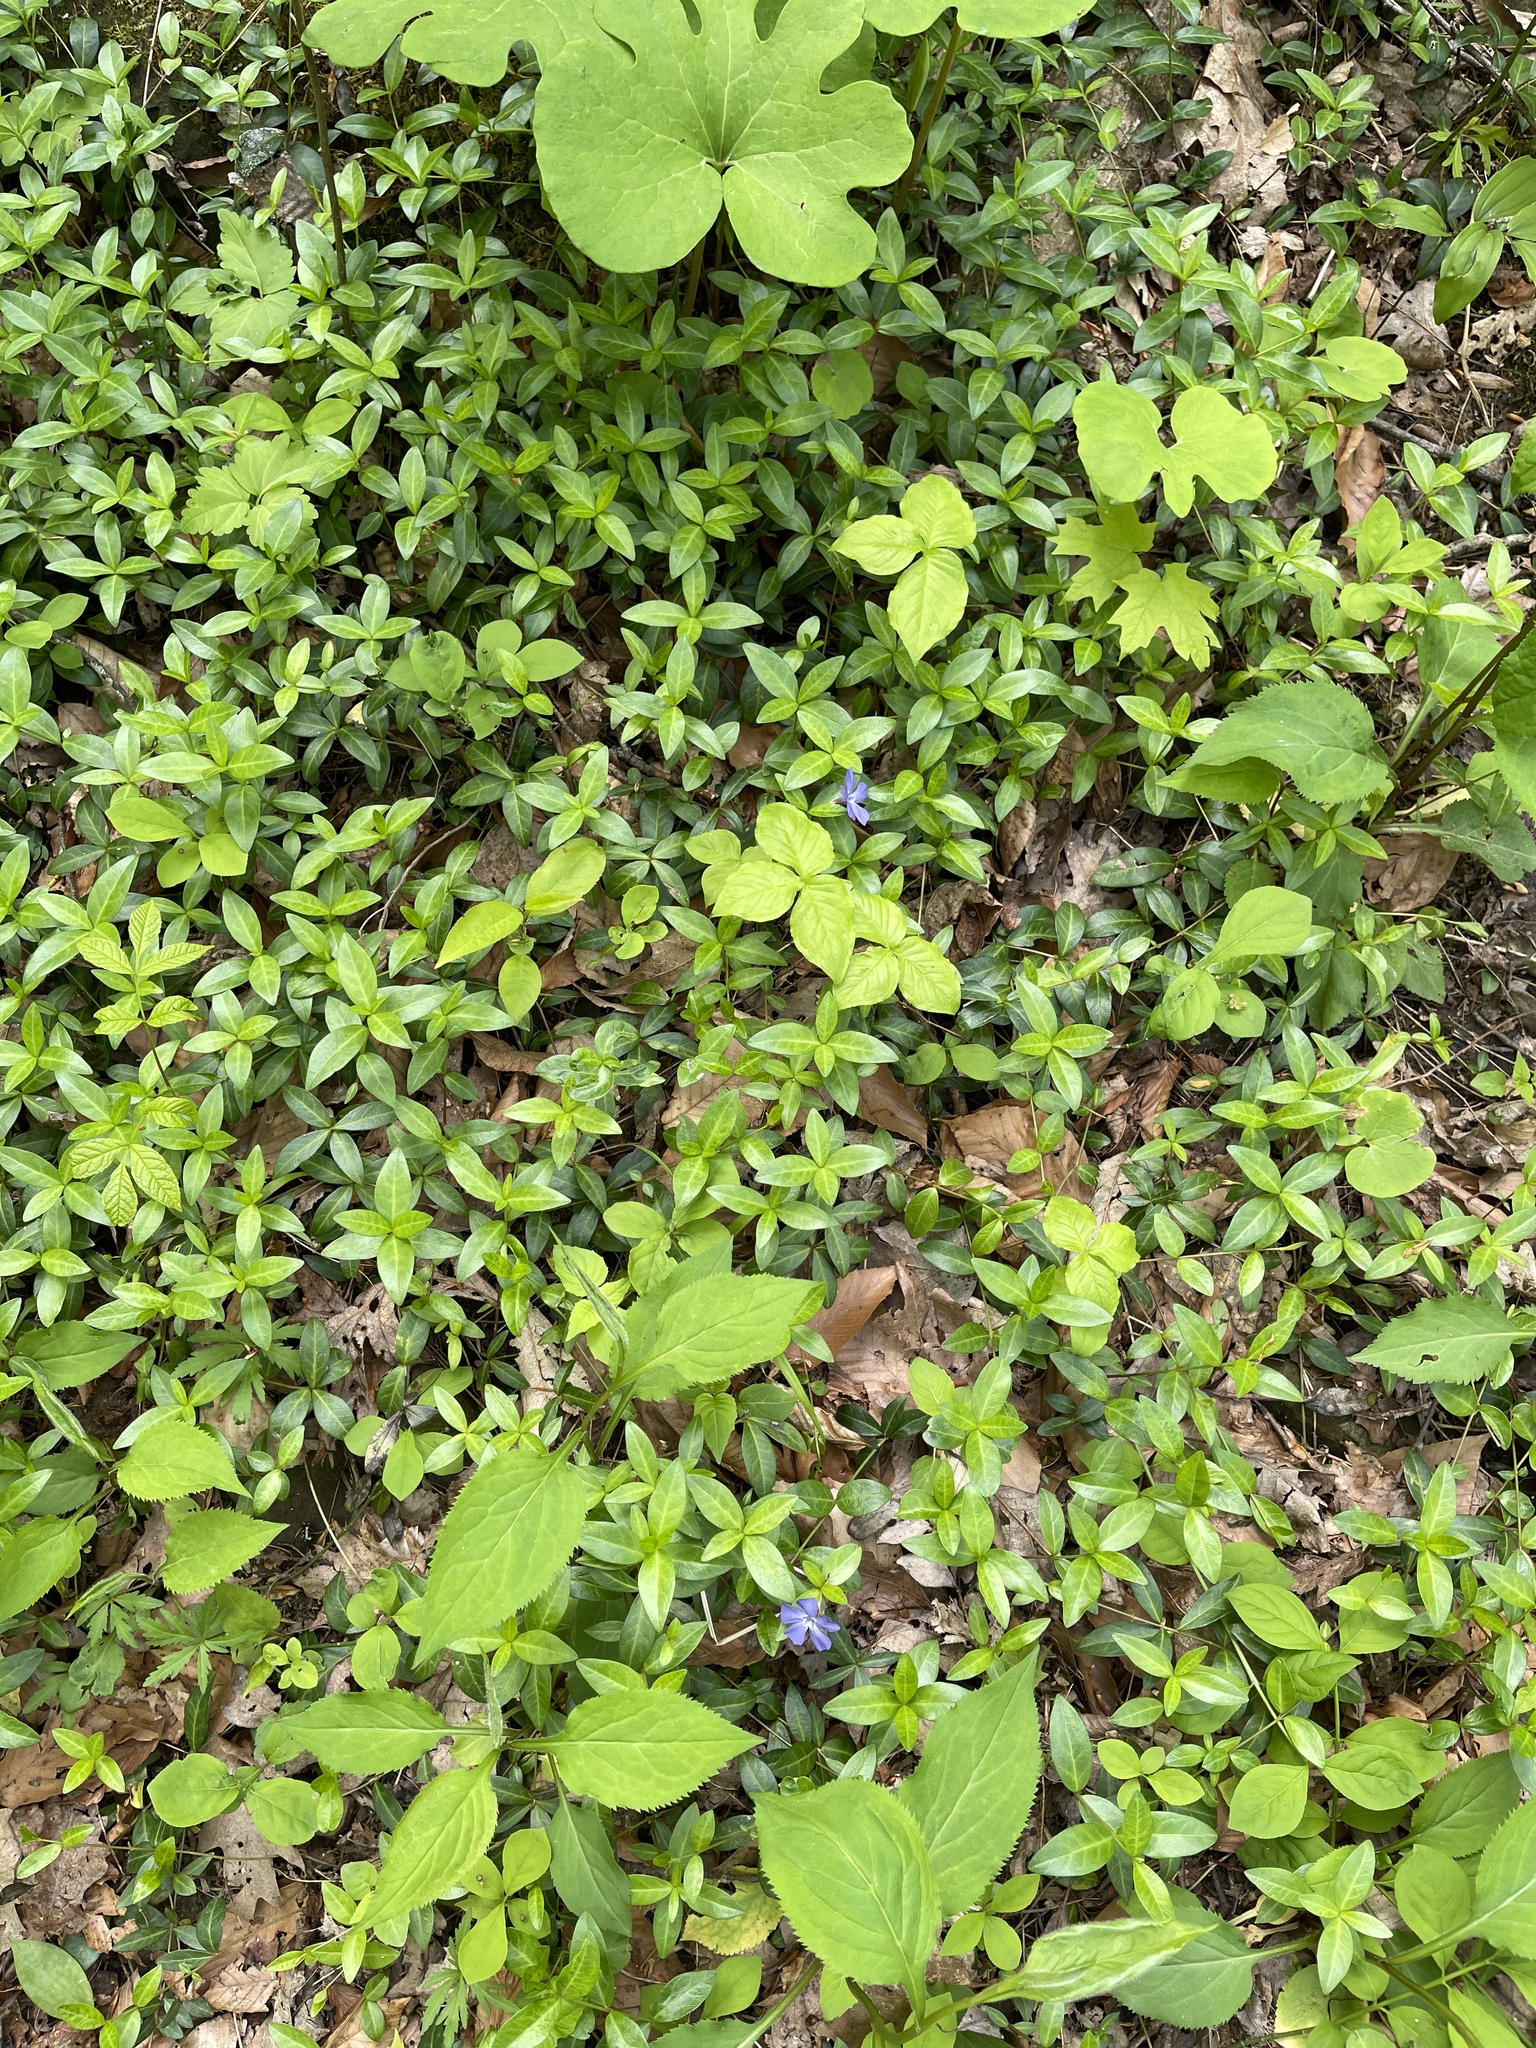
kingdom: Plantae
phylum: Tracheophyta
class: Magnoliopsida
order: Gentianales
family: Apocynaceae
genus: Vinca
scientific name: Vinca minor
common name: Lesser periwinkle
